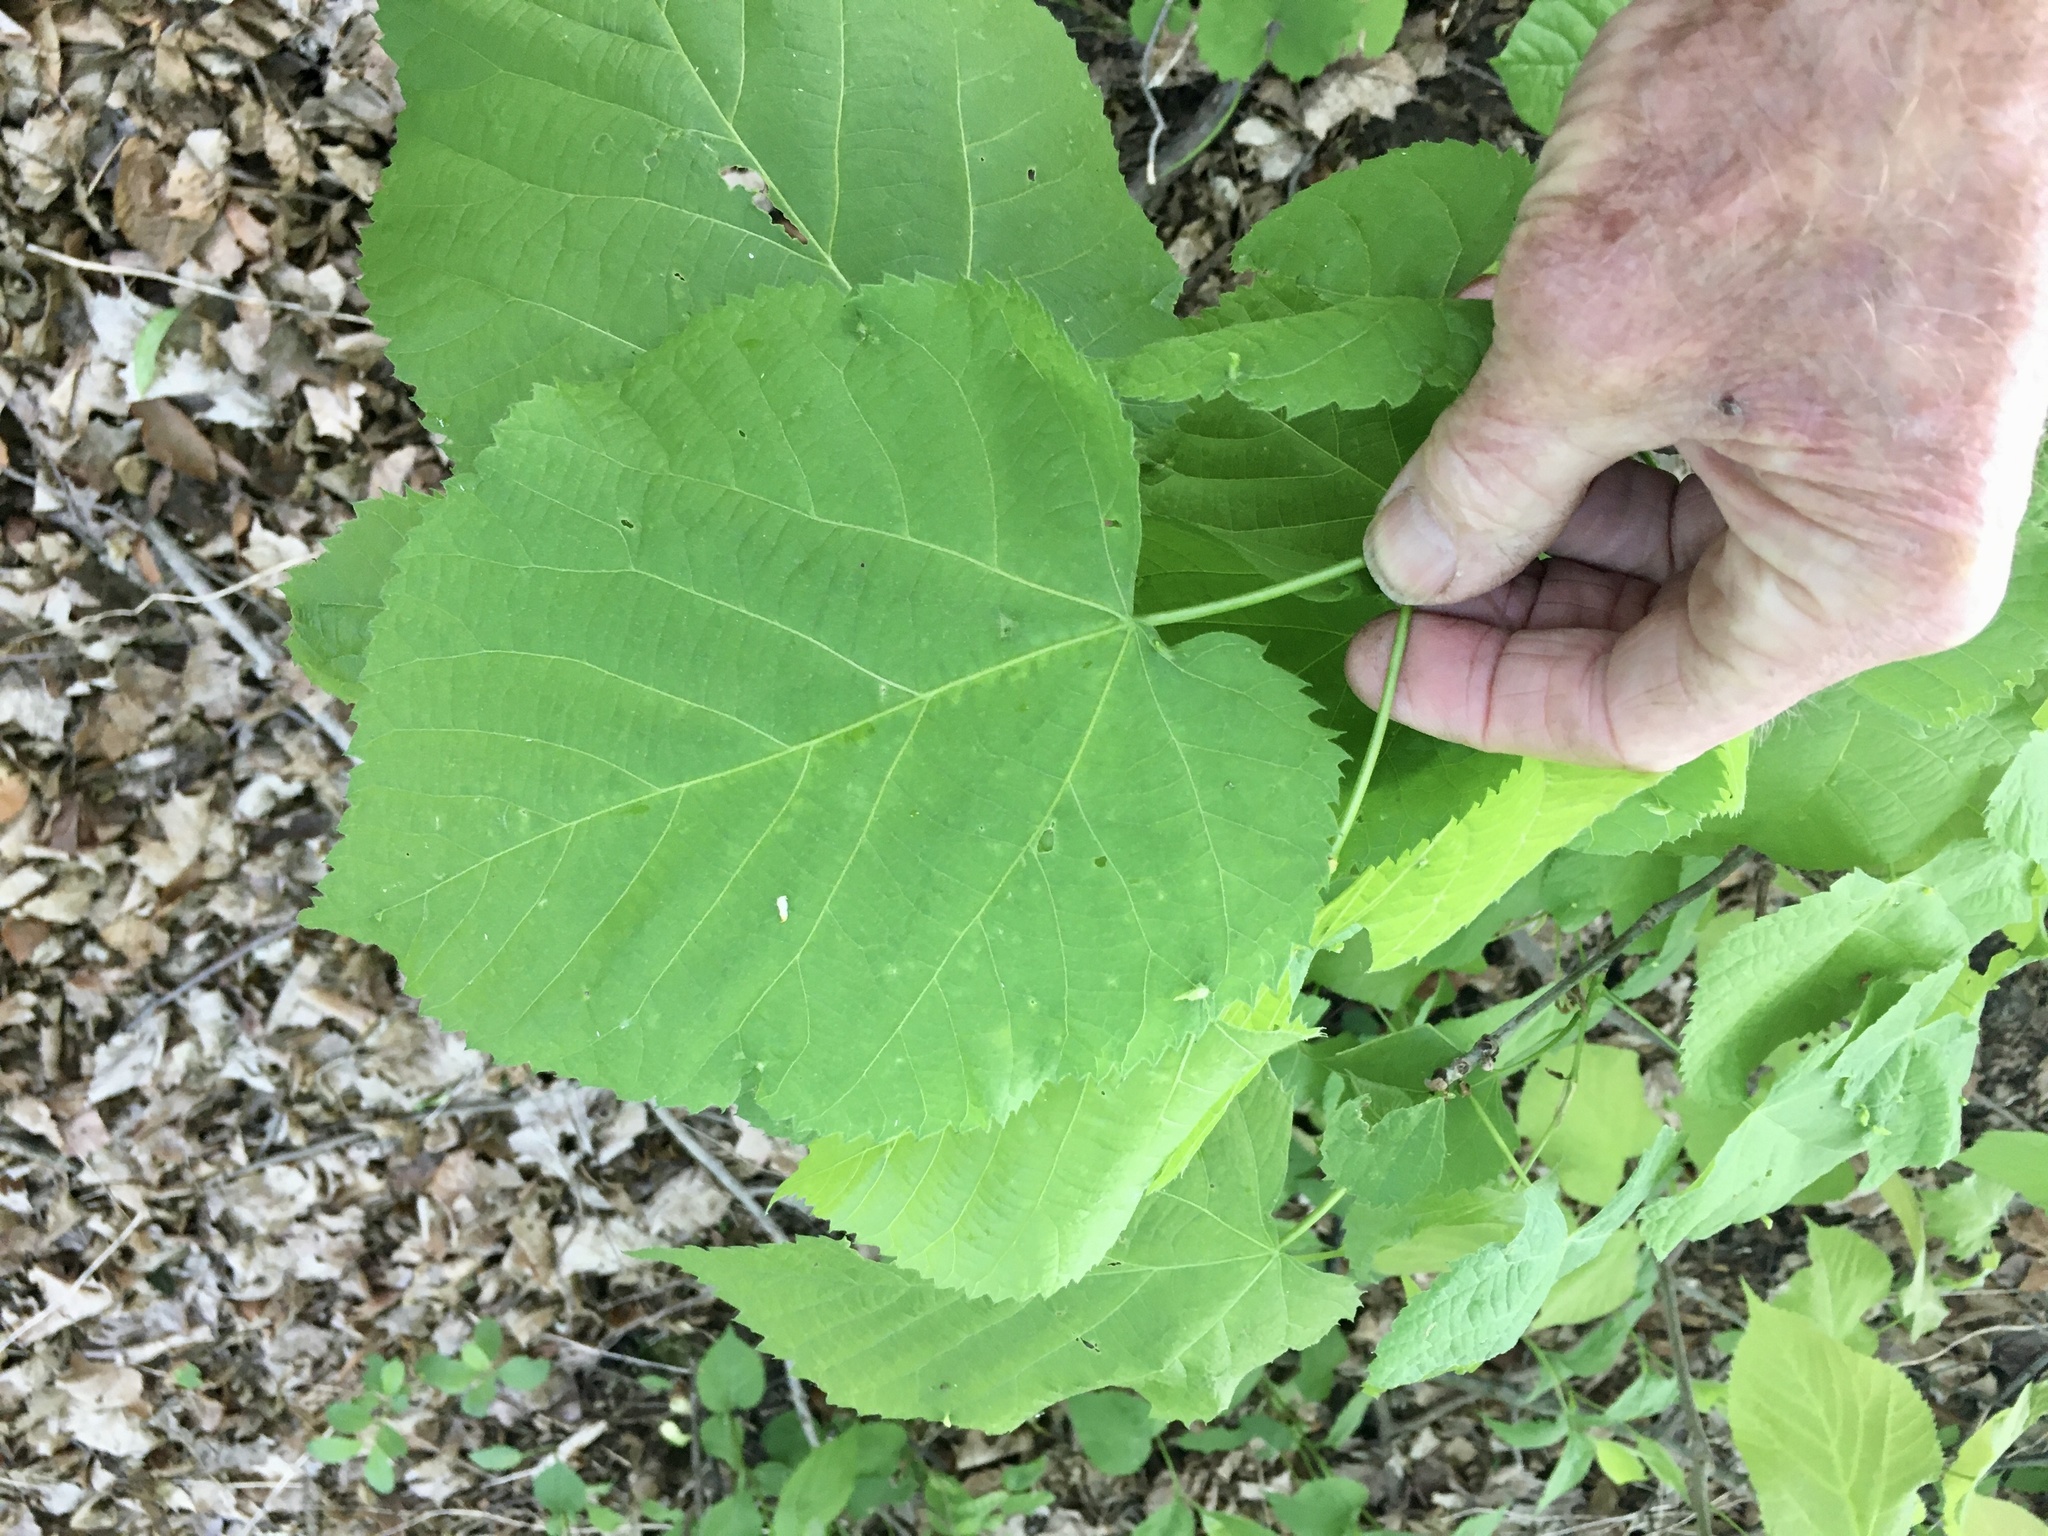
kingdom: Plantae
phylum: Tracheophyta
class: Magnoliopsida
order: Malvales
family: Malvaceae
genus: Tilia
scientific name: Tilia americana
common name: Basswood
